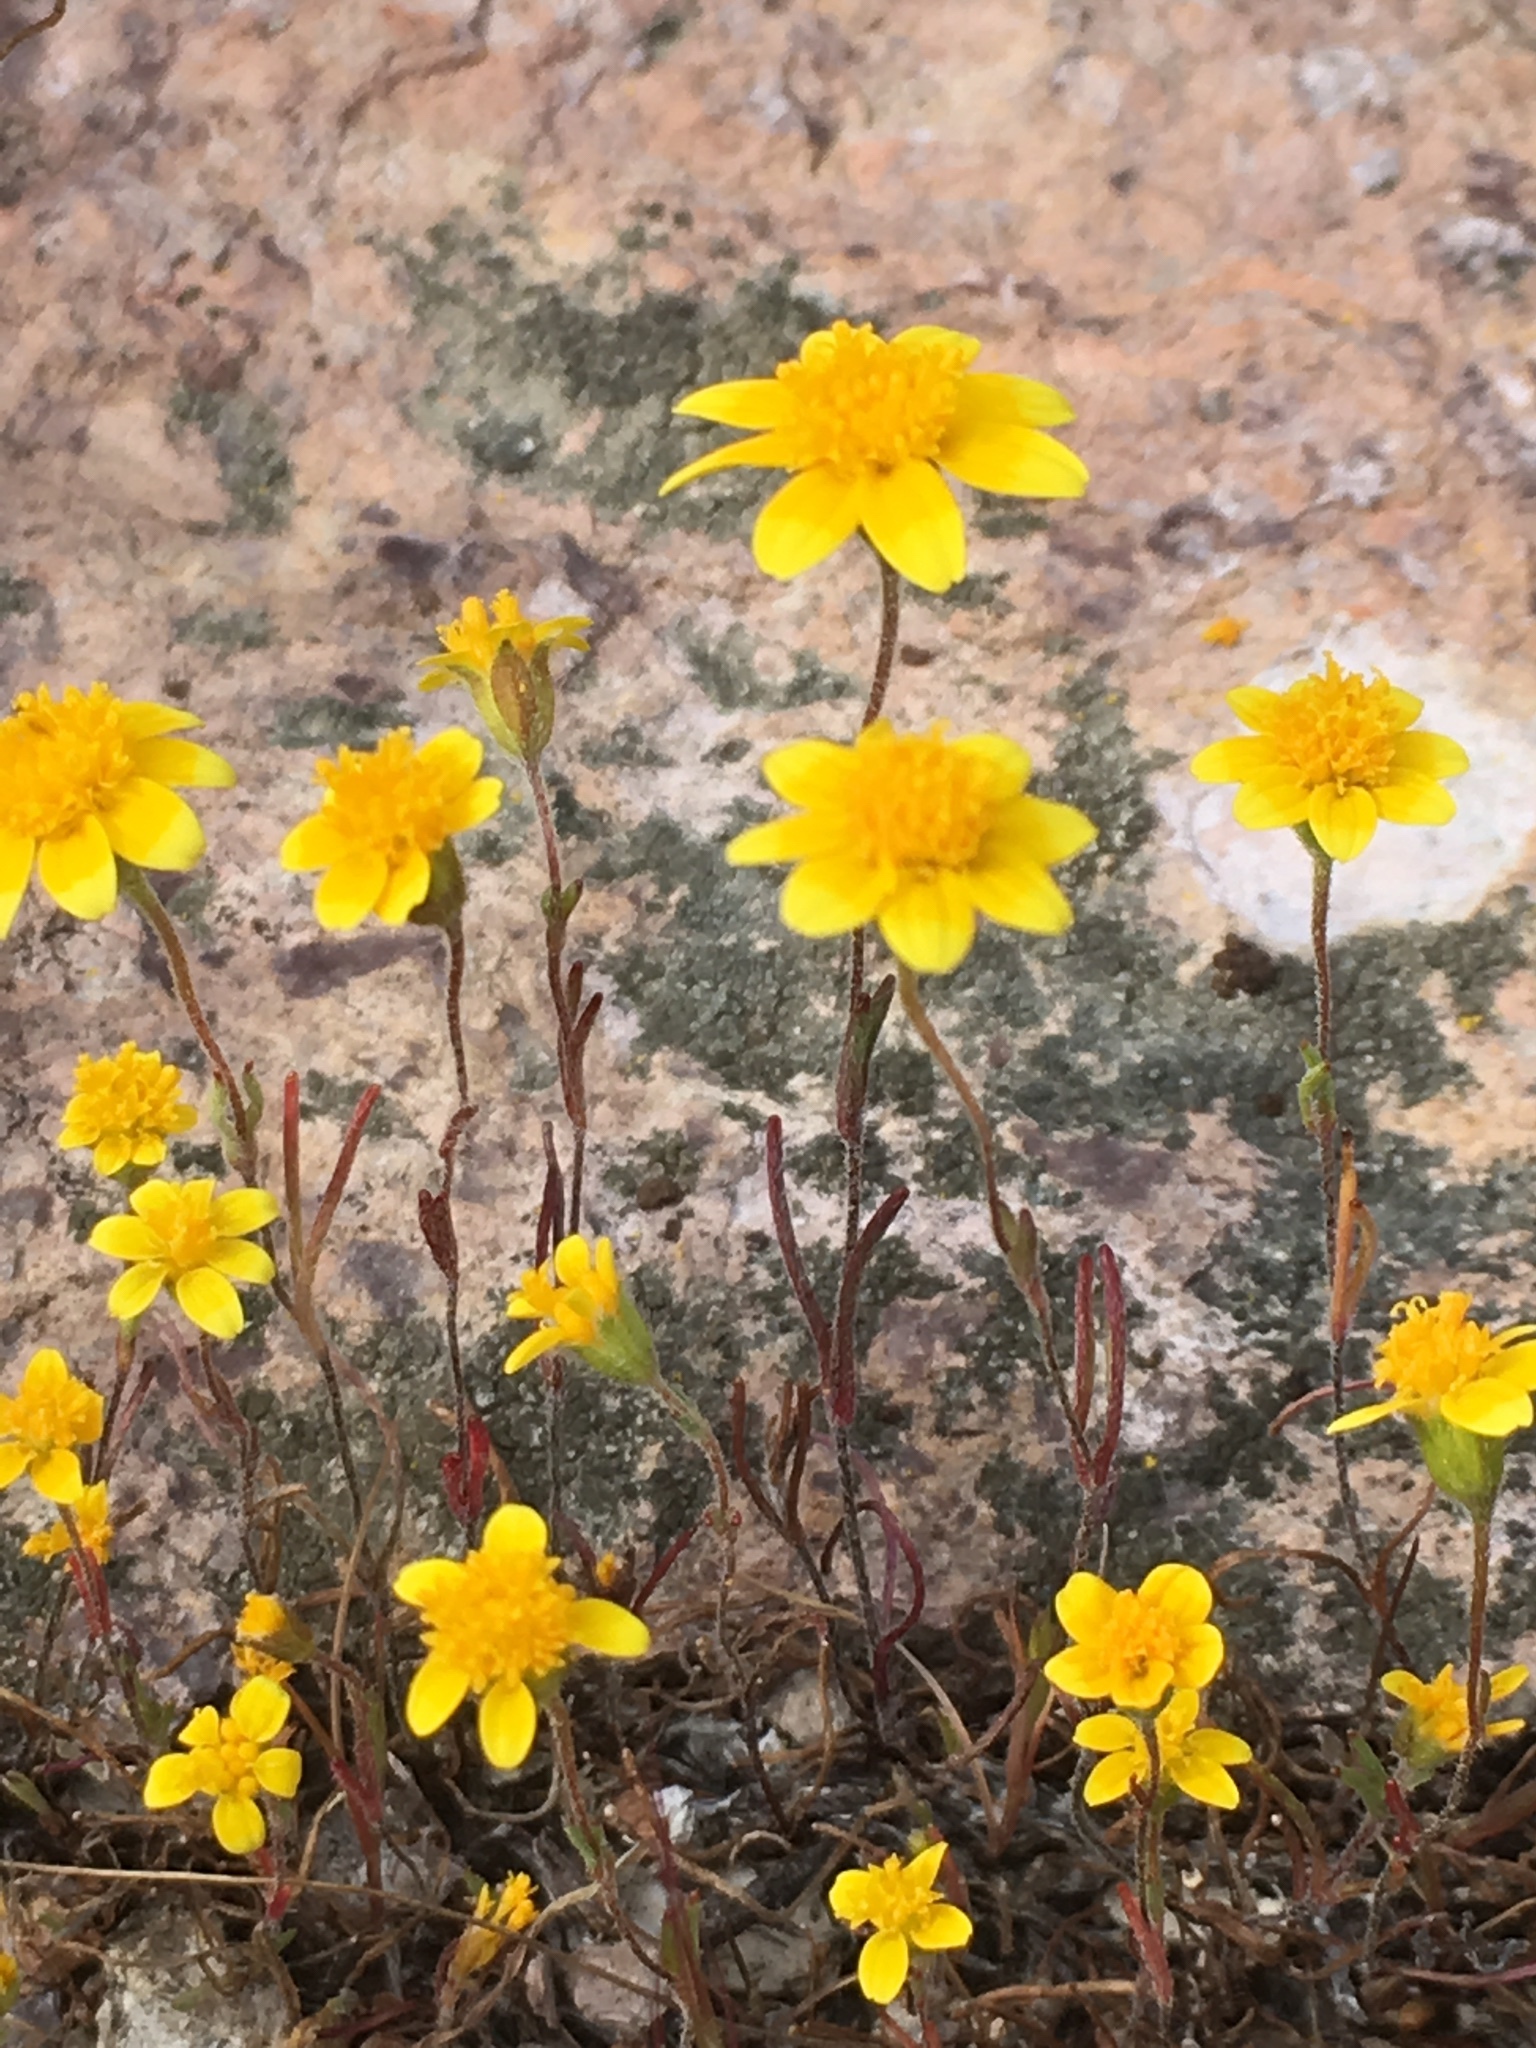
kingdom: Plantae
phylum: Tracheophyta
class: Magnoliopsida
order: Asterales
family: Asteraceae
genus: Lasthenia
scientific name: Lasthenia gracilis
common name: Common goldfields
